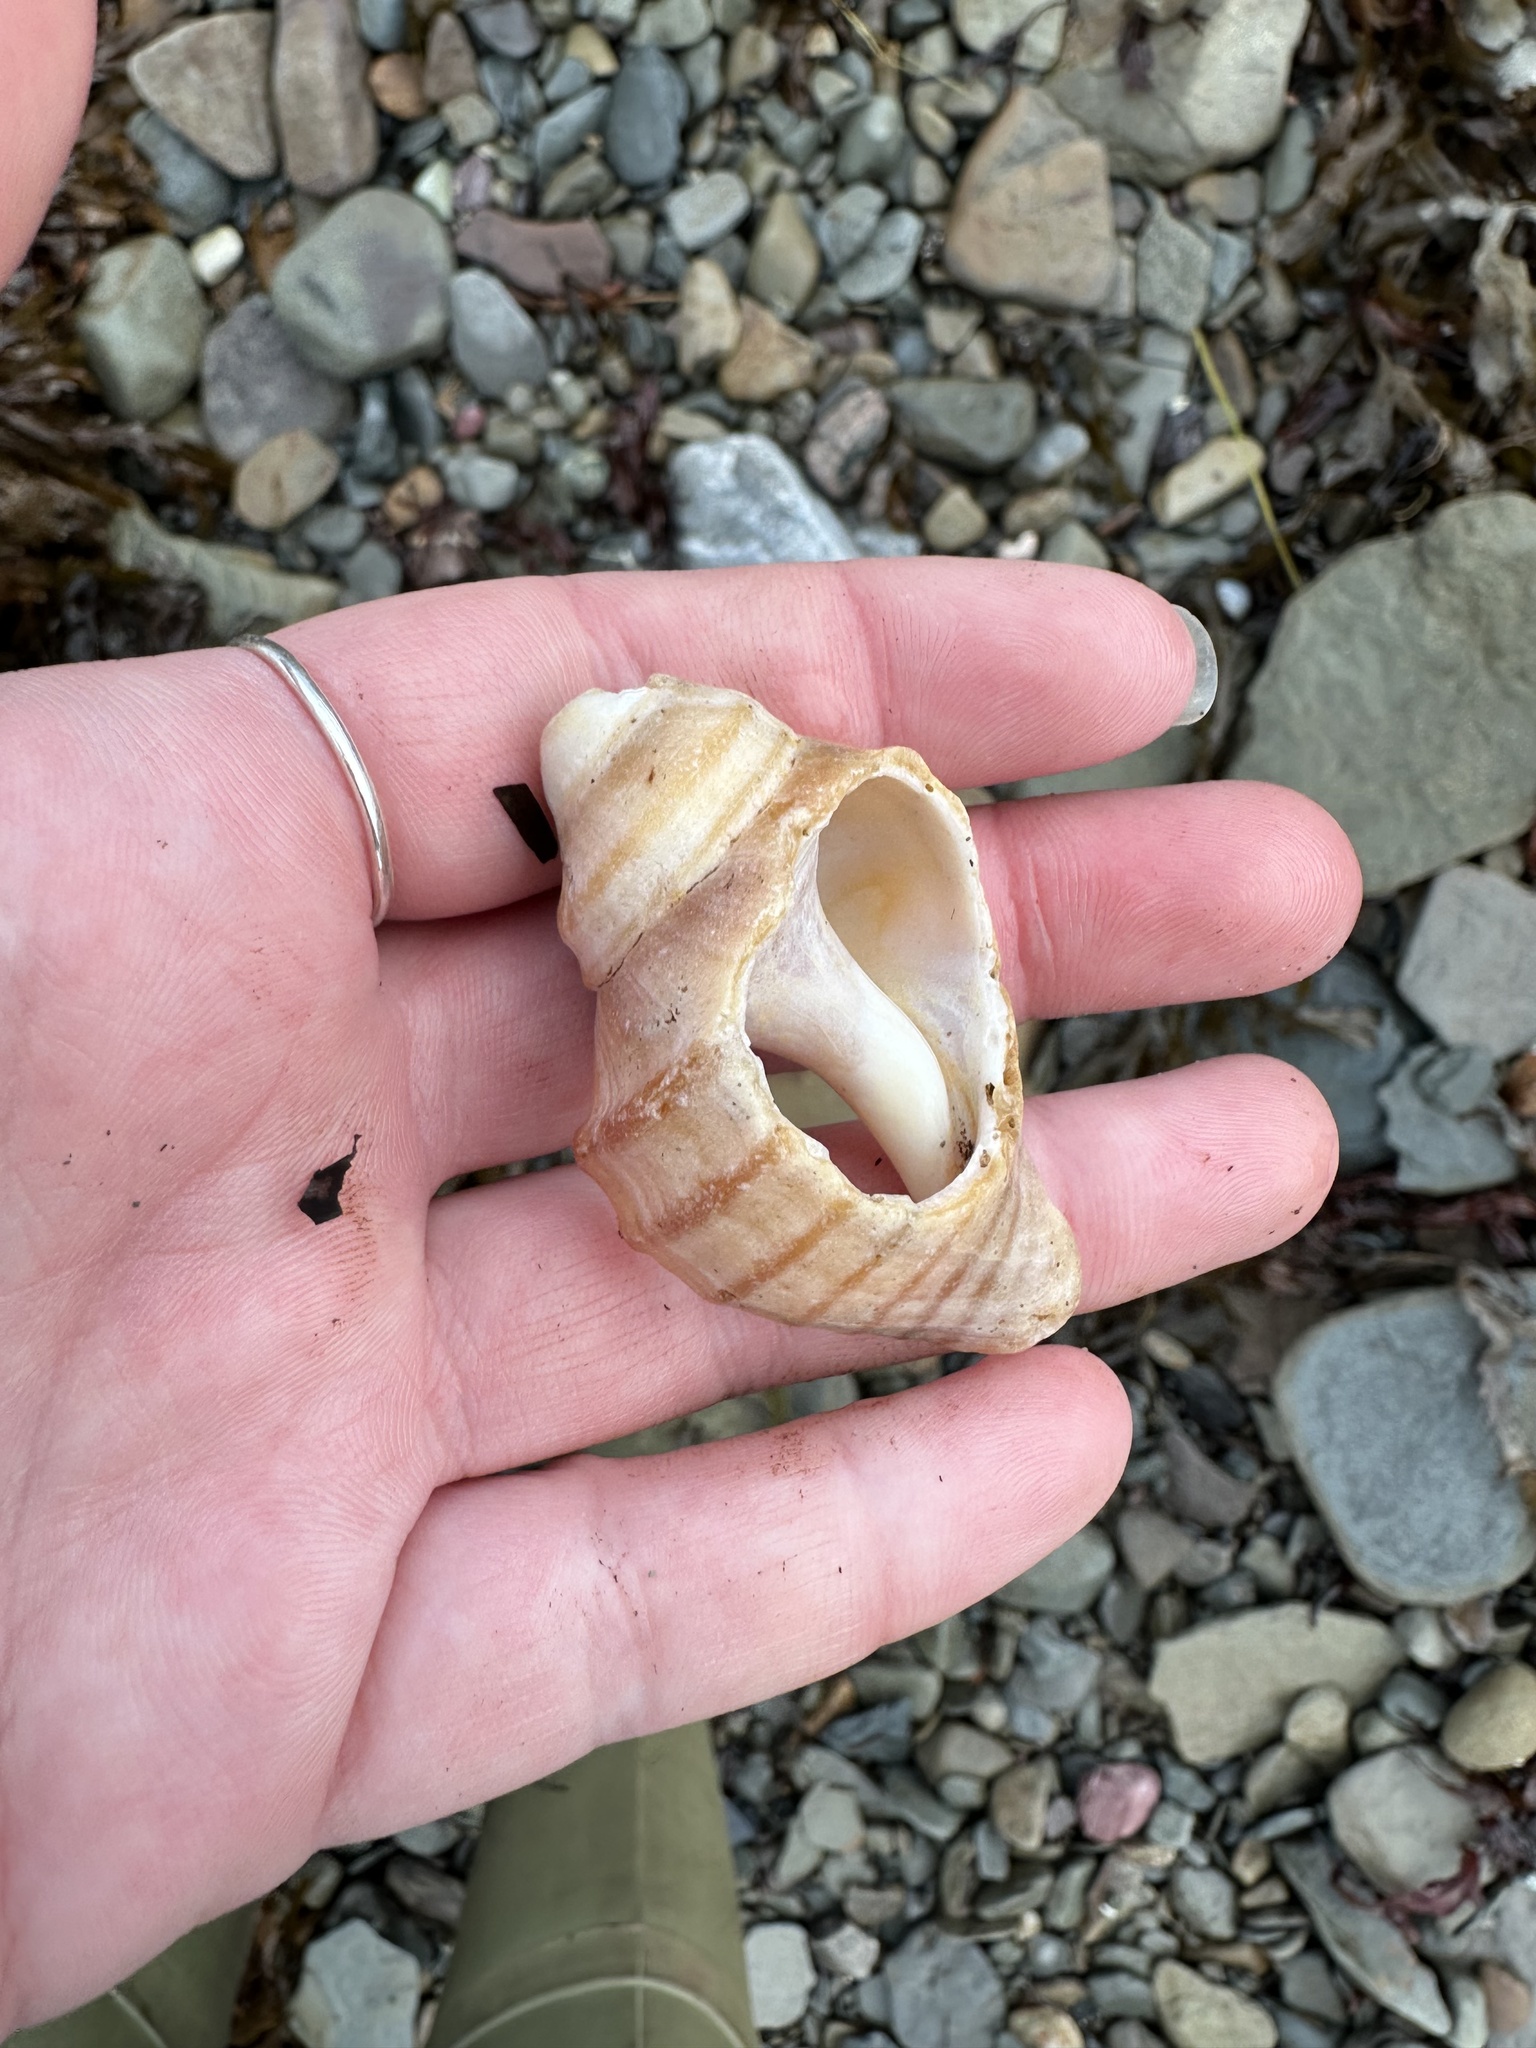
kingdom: Animalia
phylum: Mollusca
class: Gastropoda
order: Neogastropoda
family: Buccinidae
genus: Neptunea
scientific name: Neptunea decemcostata
